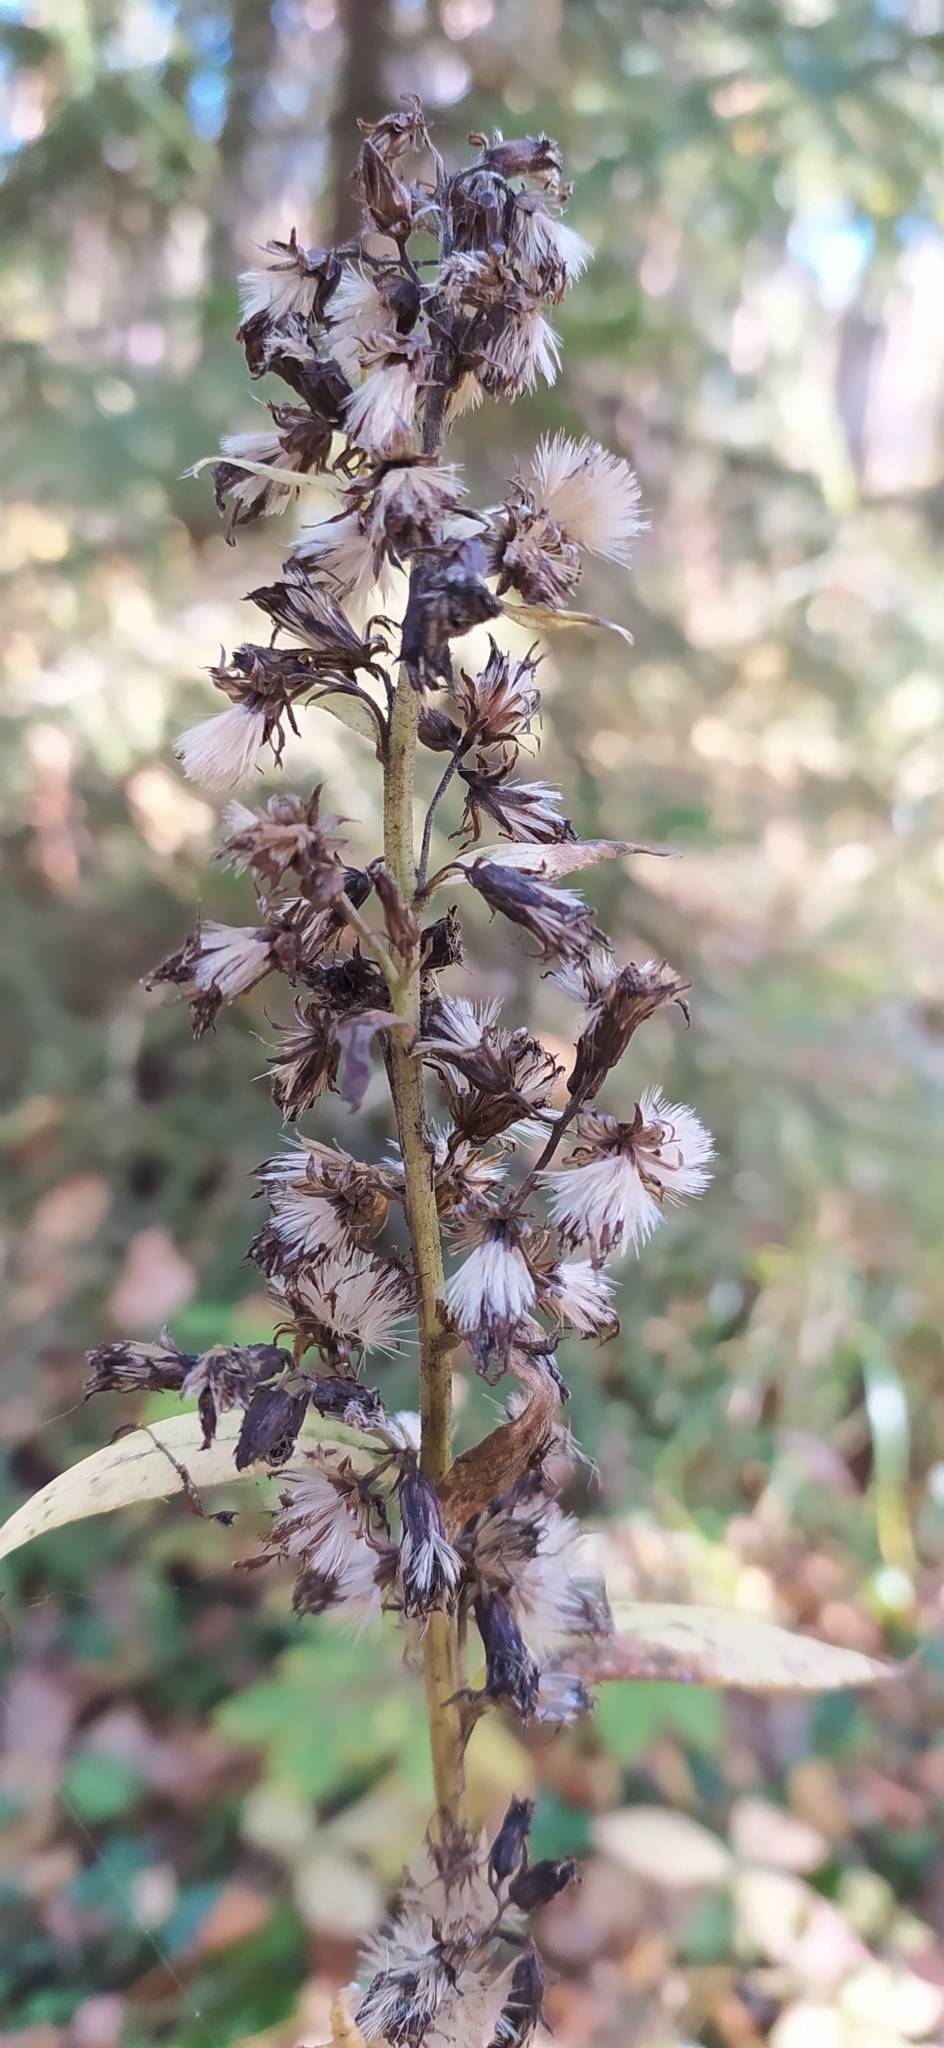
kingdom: Plantae
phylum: Tracheophyta
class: Magnoliopsida
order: Asterales
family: Asteraceae
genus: Solidago
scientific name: Solidago virgaurea
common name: Goldenrod
